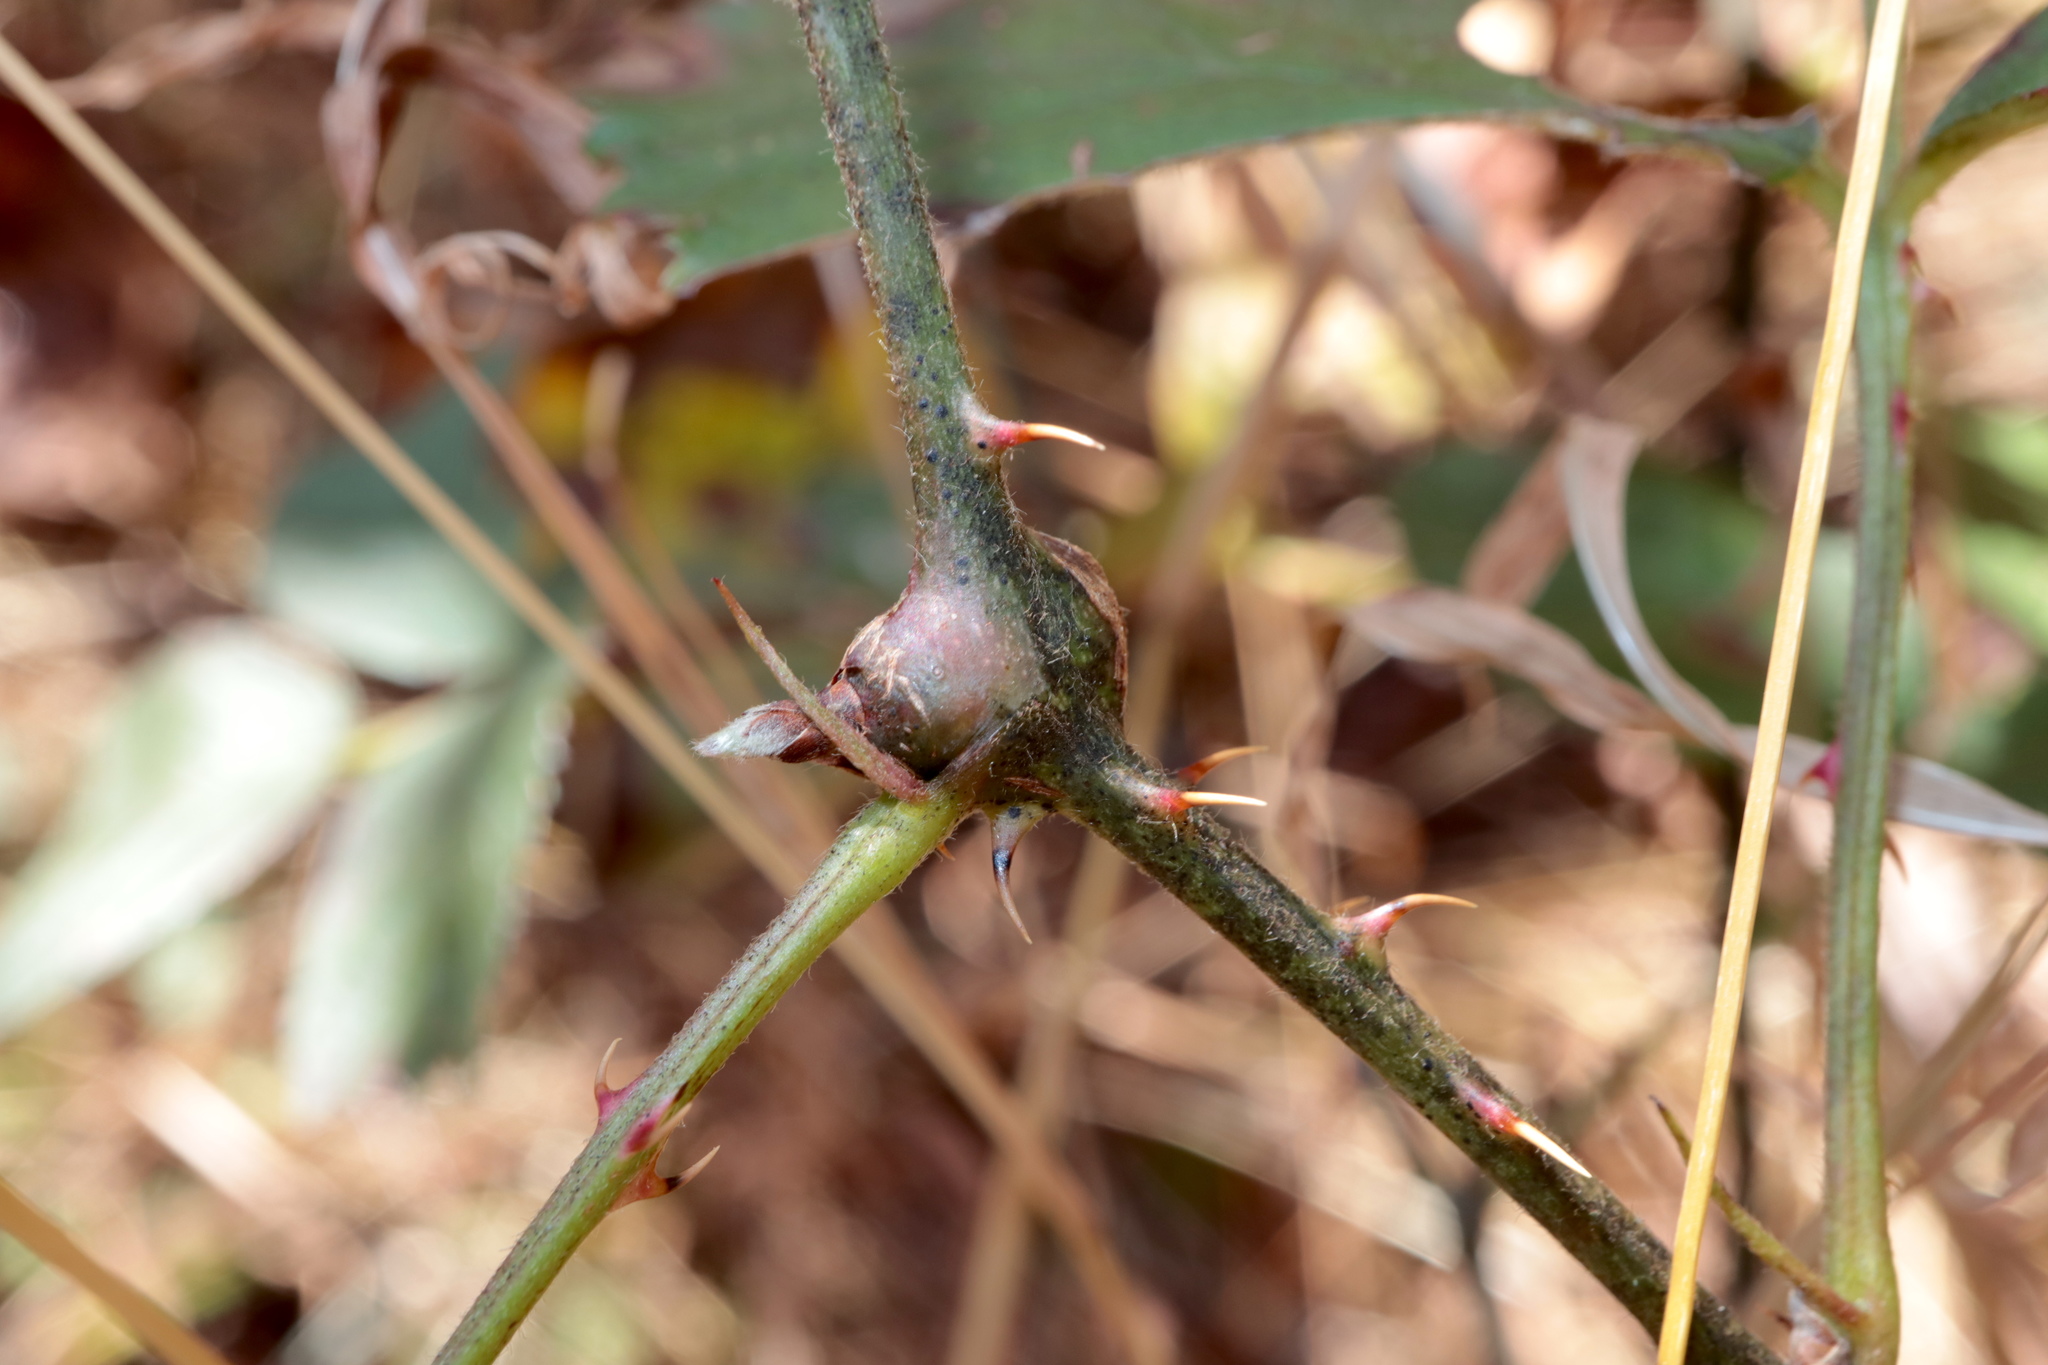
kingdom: Animalia
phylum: Arthropoda
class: Insecta
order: Diptera
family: Cecidomyiidae
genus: Neolasioptera
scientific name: Neolasioptera nodulosa
